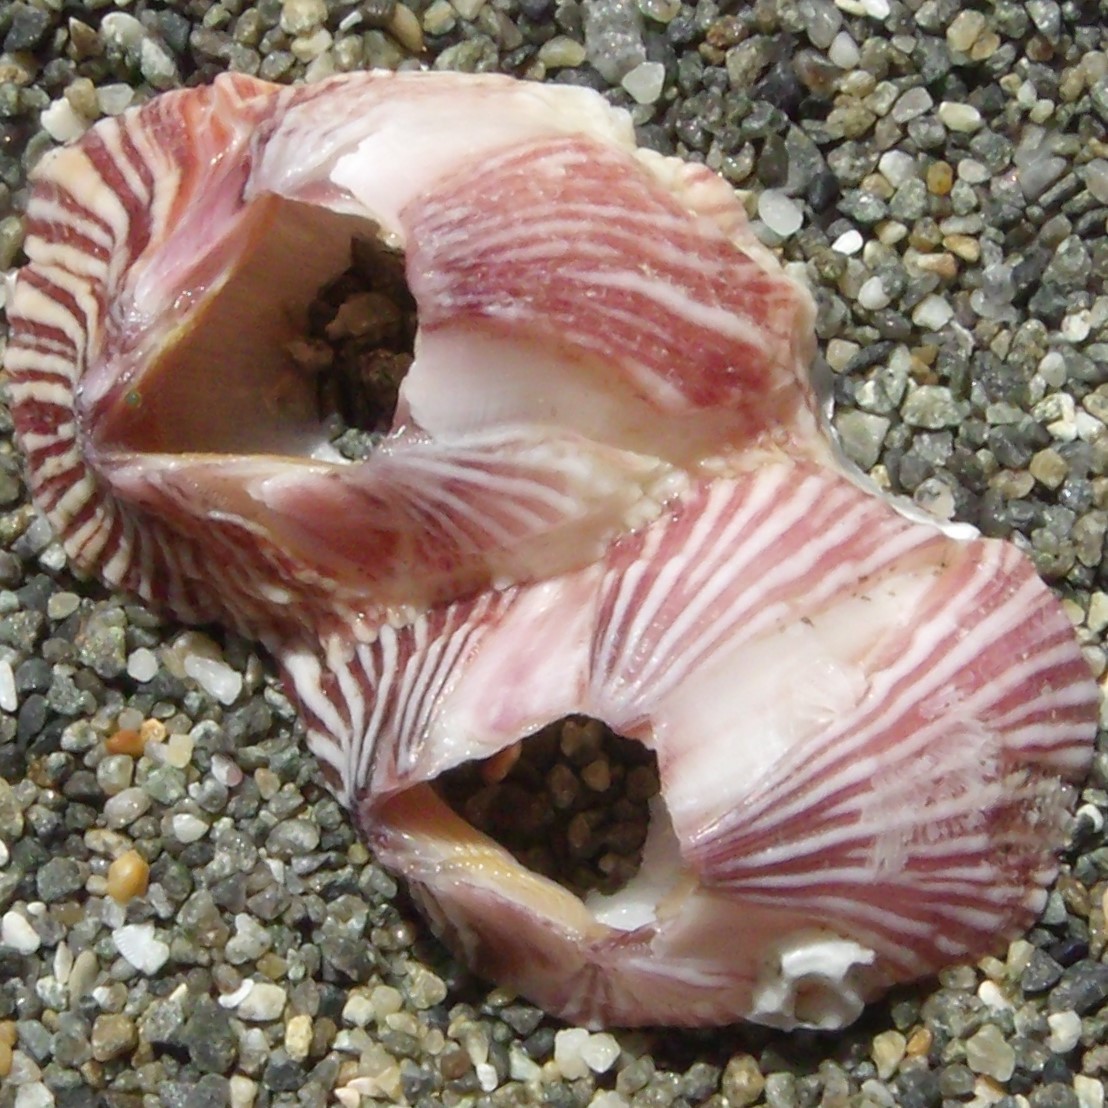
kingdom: Animalia
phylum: Arthropoda
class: Maxillopoda
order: Sessilia
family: Balanidae
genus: Balanus
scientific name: Balanus trigonus
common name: Triangle barnacle
